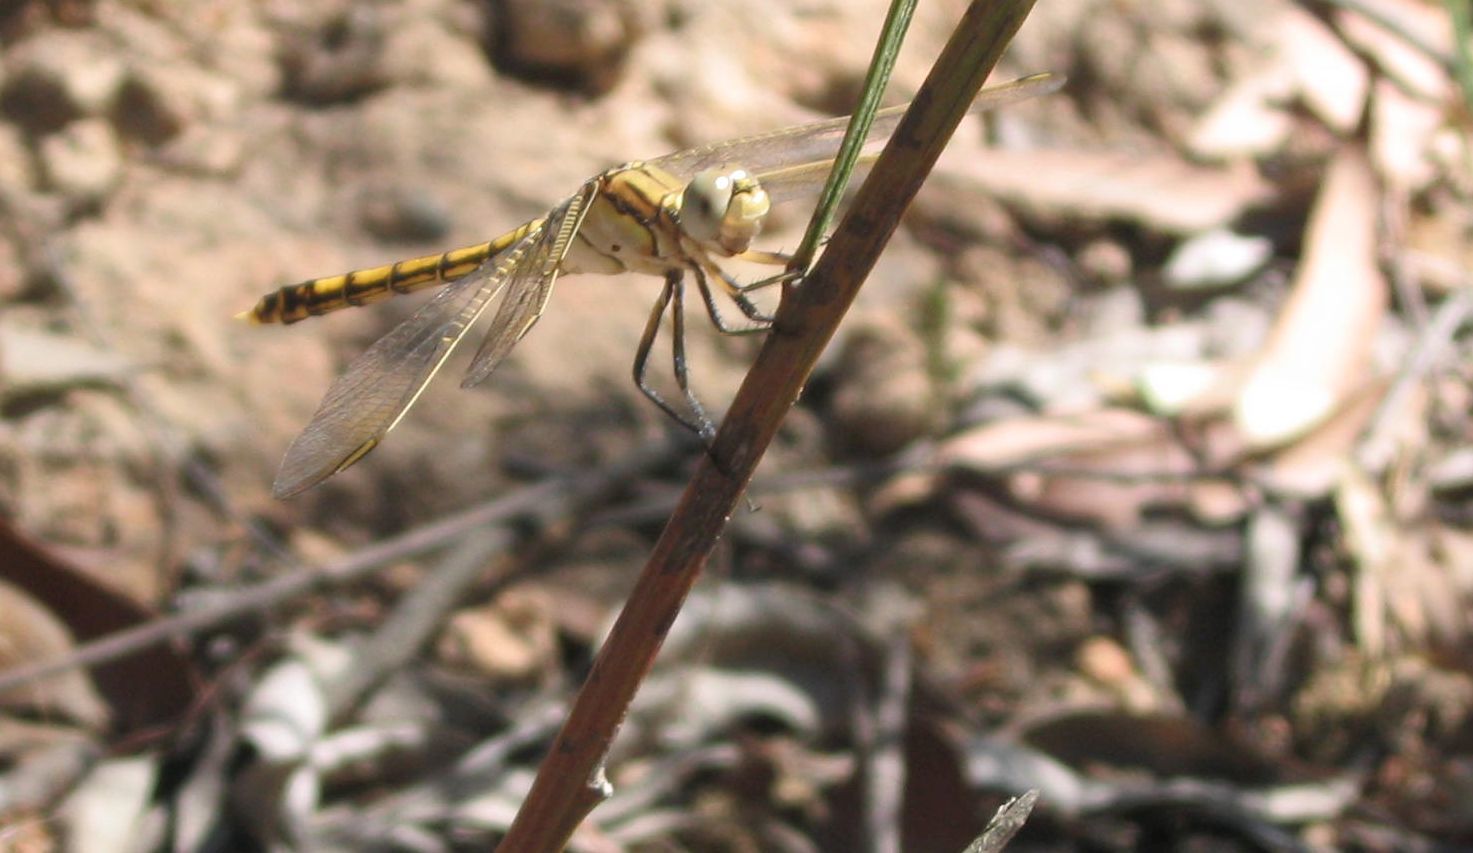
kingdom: Animalia
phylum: Arthropoda
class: Insecta
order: Odonata
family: Libellulidae
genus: Orthetrum
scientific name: Orthetrum caledonicum
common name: Blue skimmer
